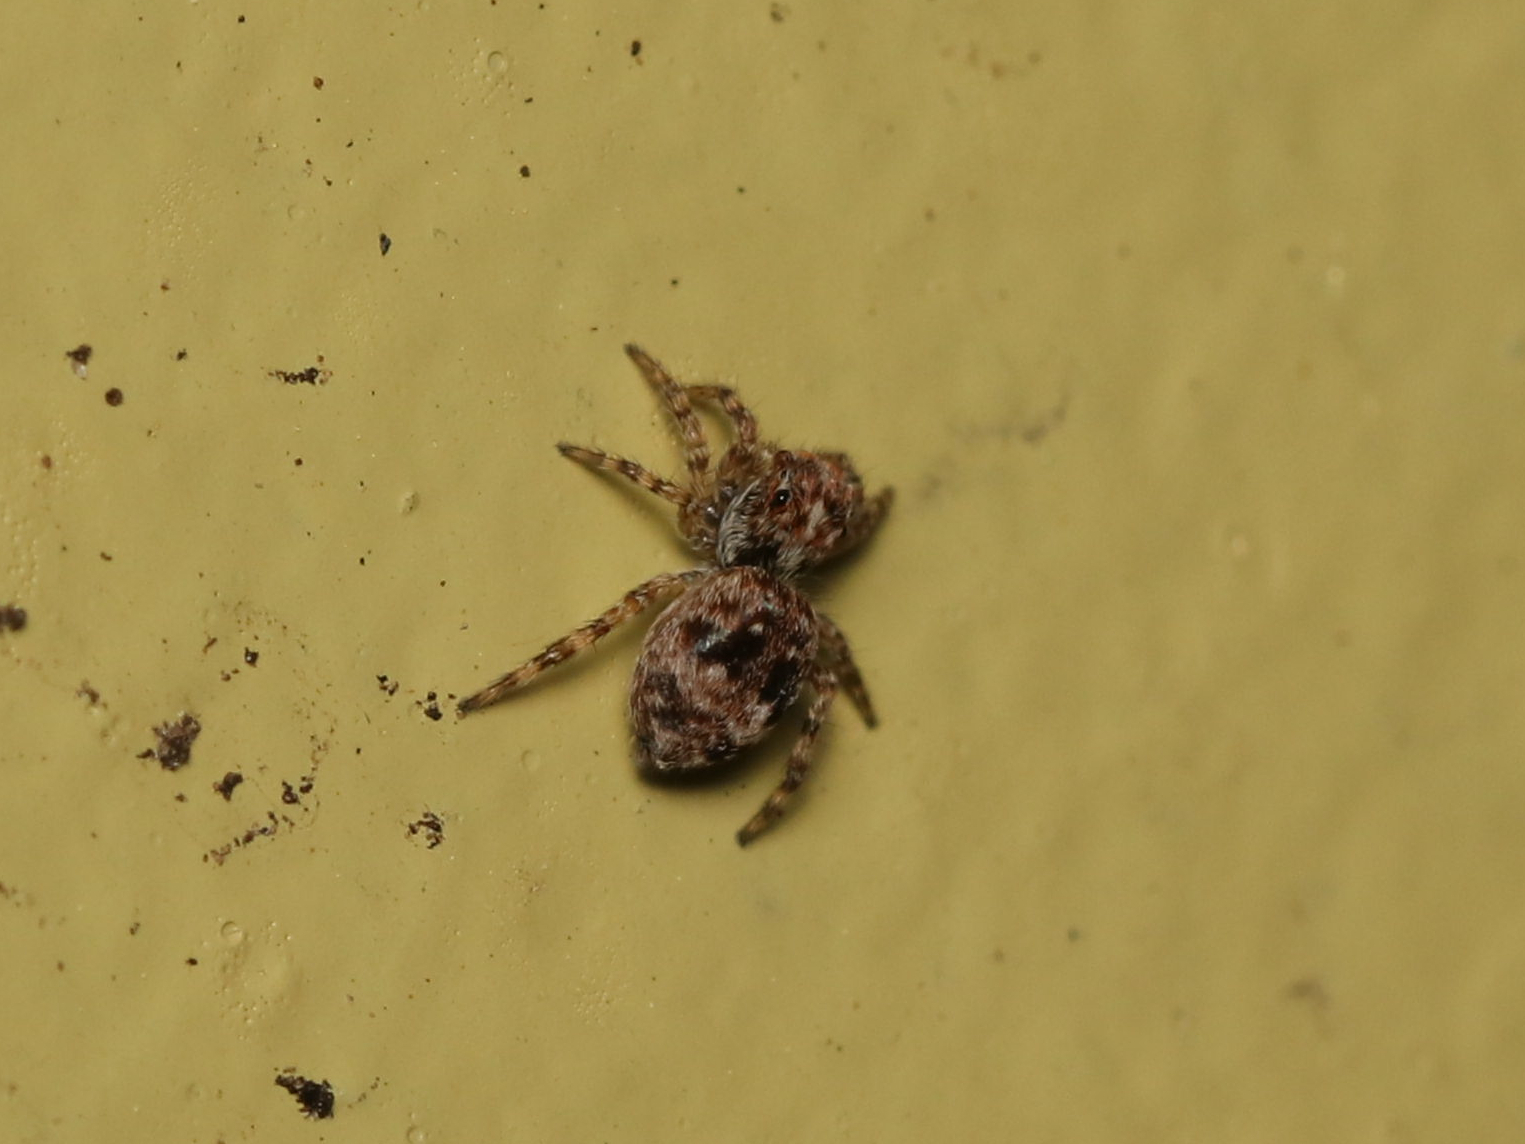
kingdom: Animalia
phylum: Arthropoda
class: Arachnida
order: Araneae
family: Salticidae
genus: Attulus
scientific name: Attulus fasciger
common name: Asiatic wall jumping spider
